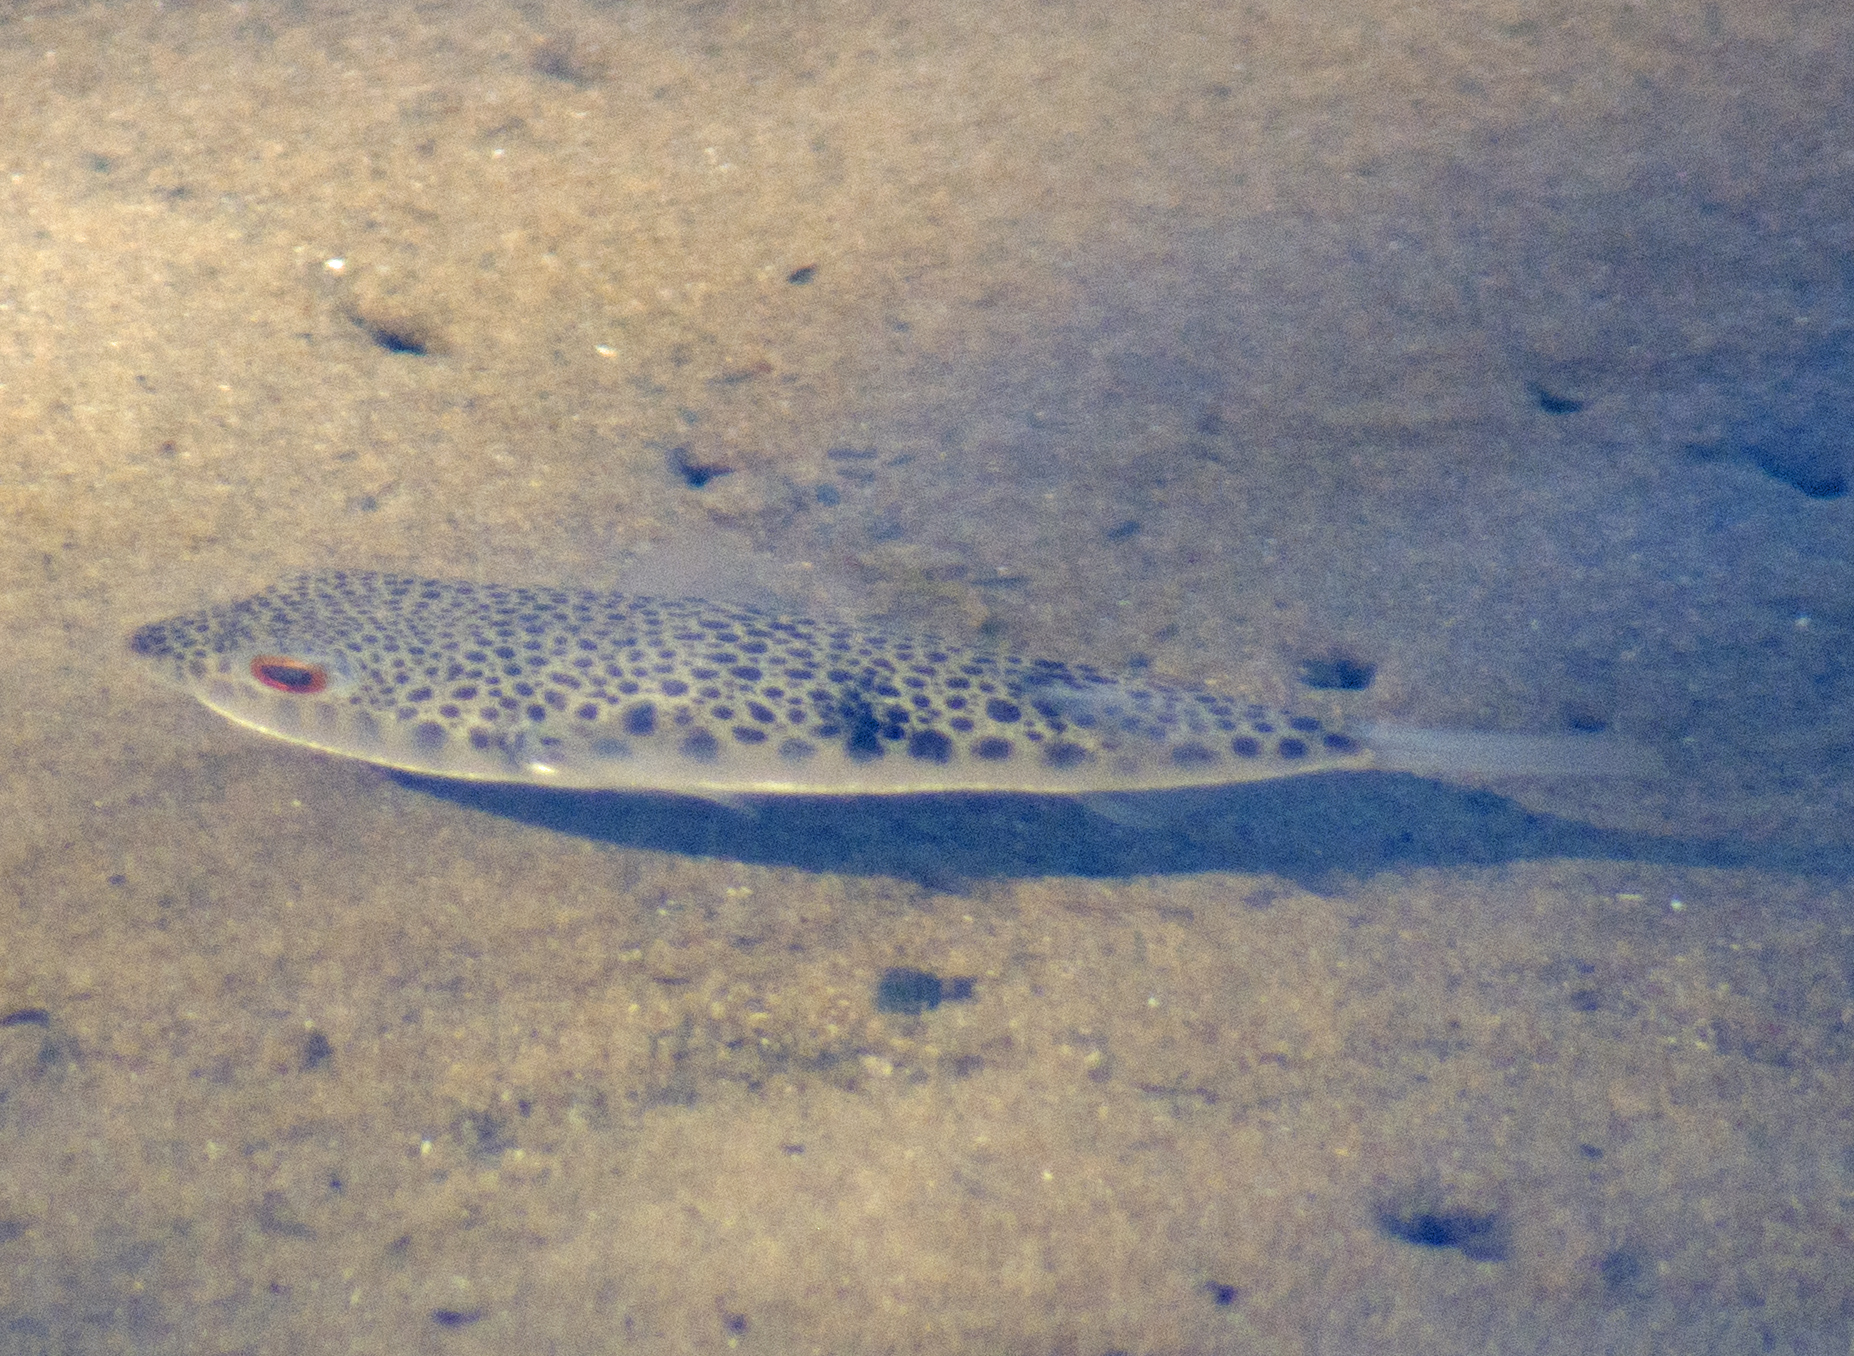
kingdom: Animalia
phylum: Chordata
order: Tetraodontiformes
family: Tetraodontidae
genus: Tetractenos
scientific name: Tetractenos hamiltoni
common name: Common toadfish
